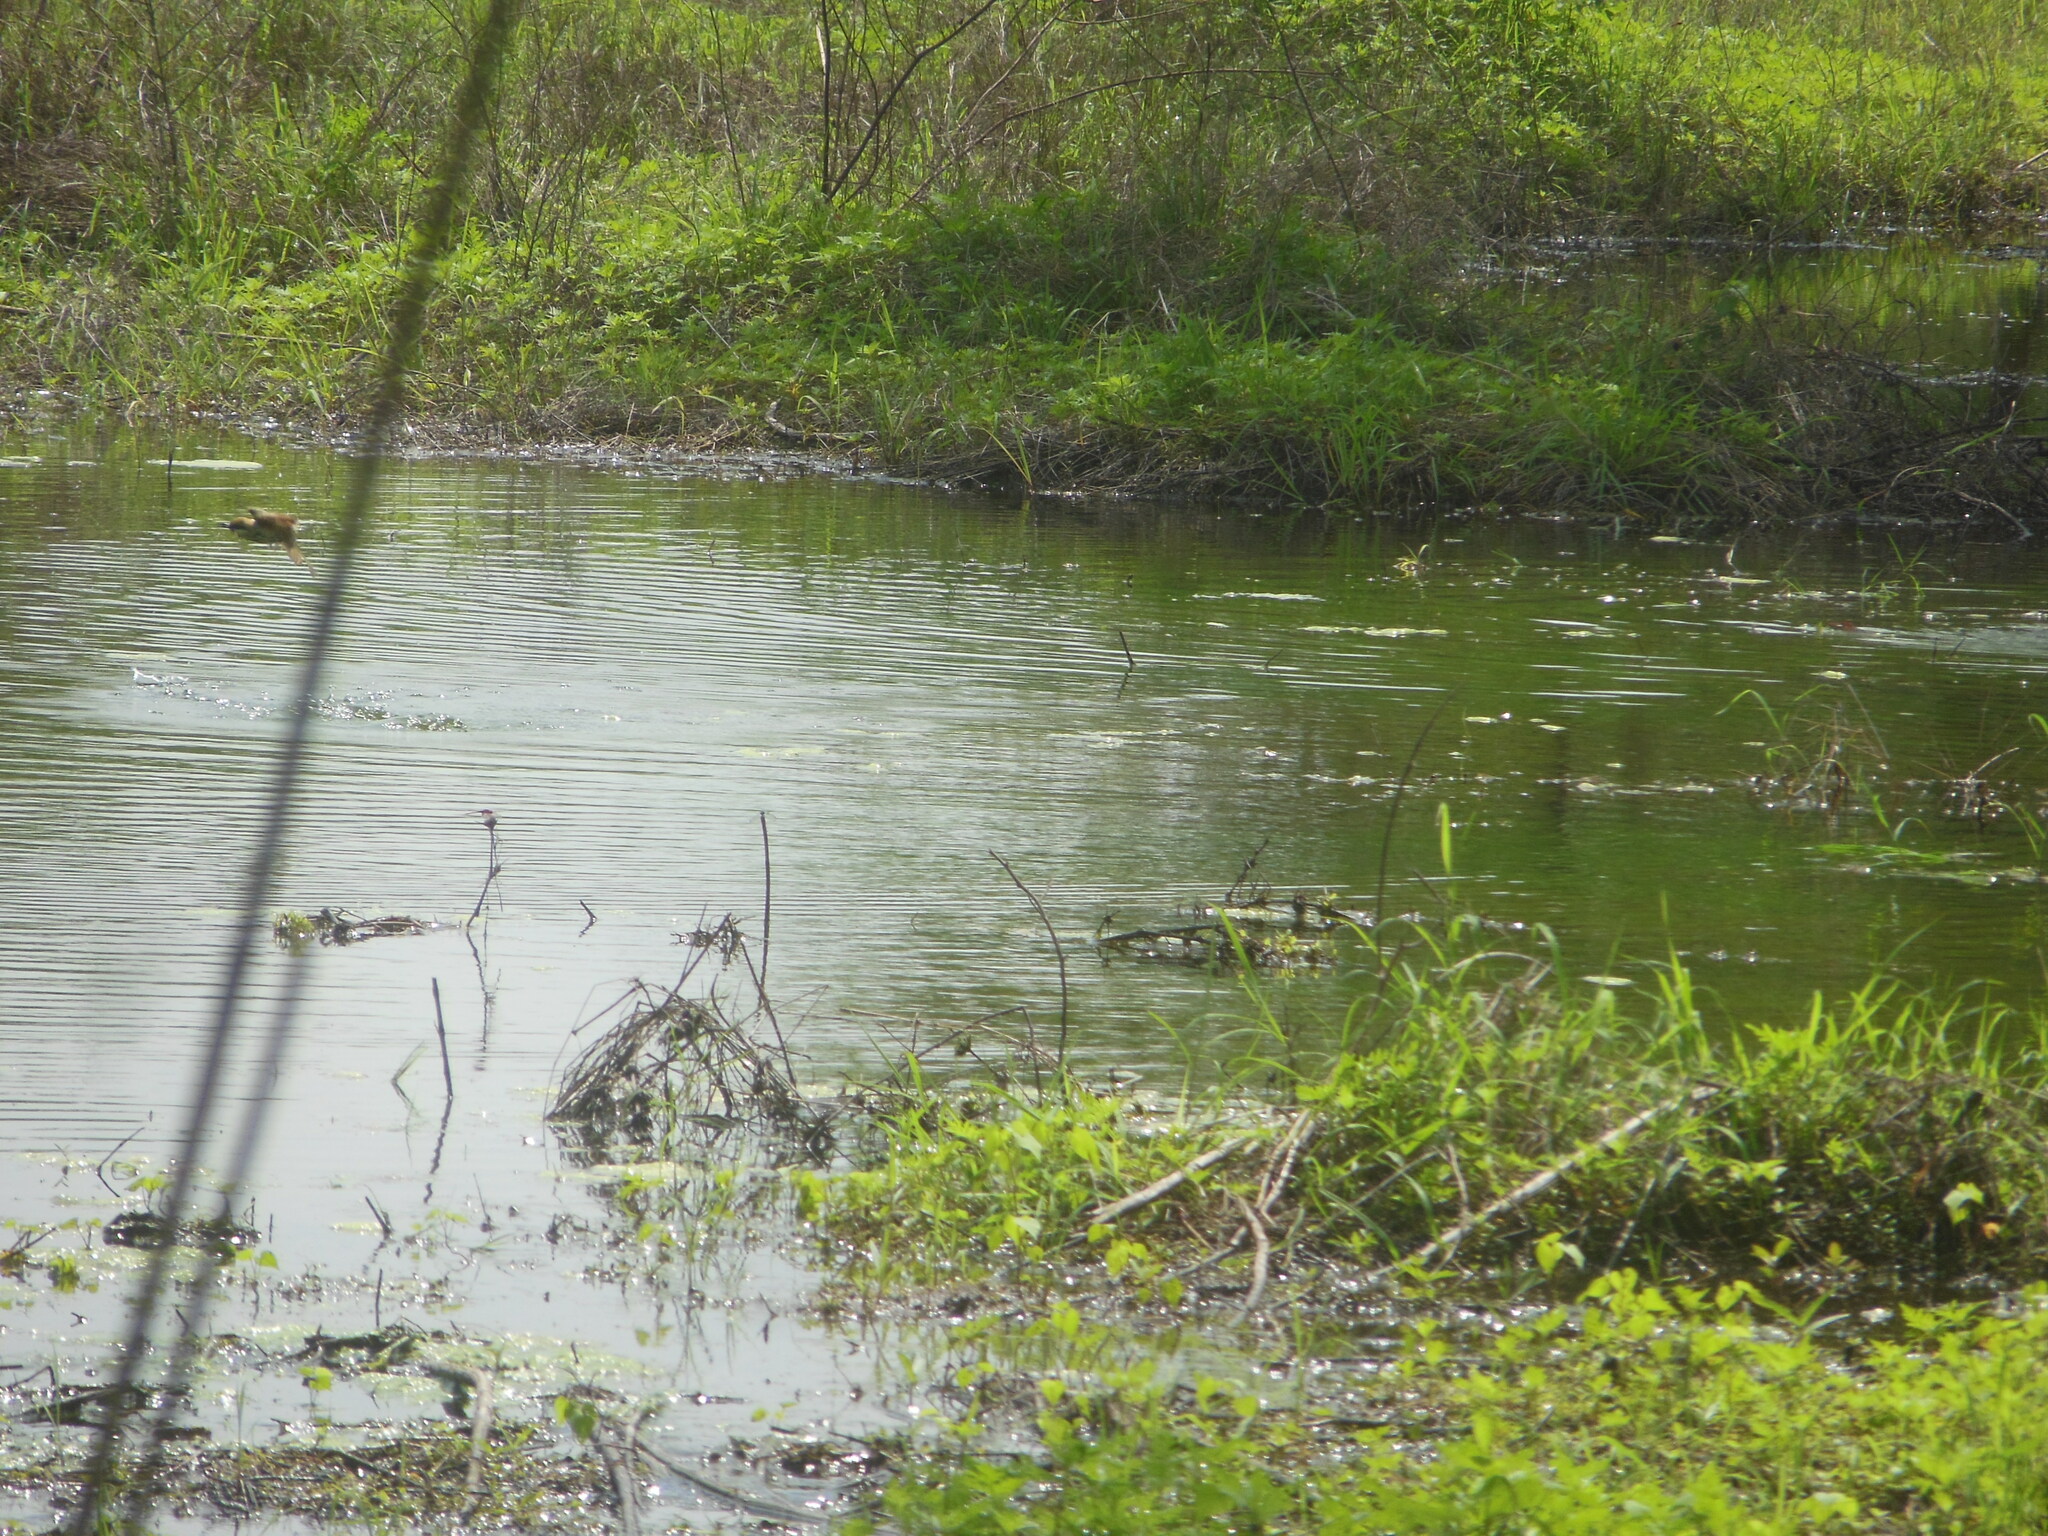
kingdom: Animalia
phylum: Chordata
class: Aves
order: Coraciiformes
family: Meropidae
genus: Merops
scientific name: Merops orientalis
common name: Green bee-eater
